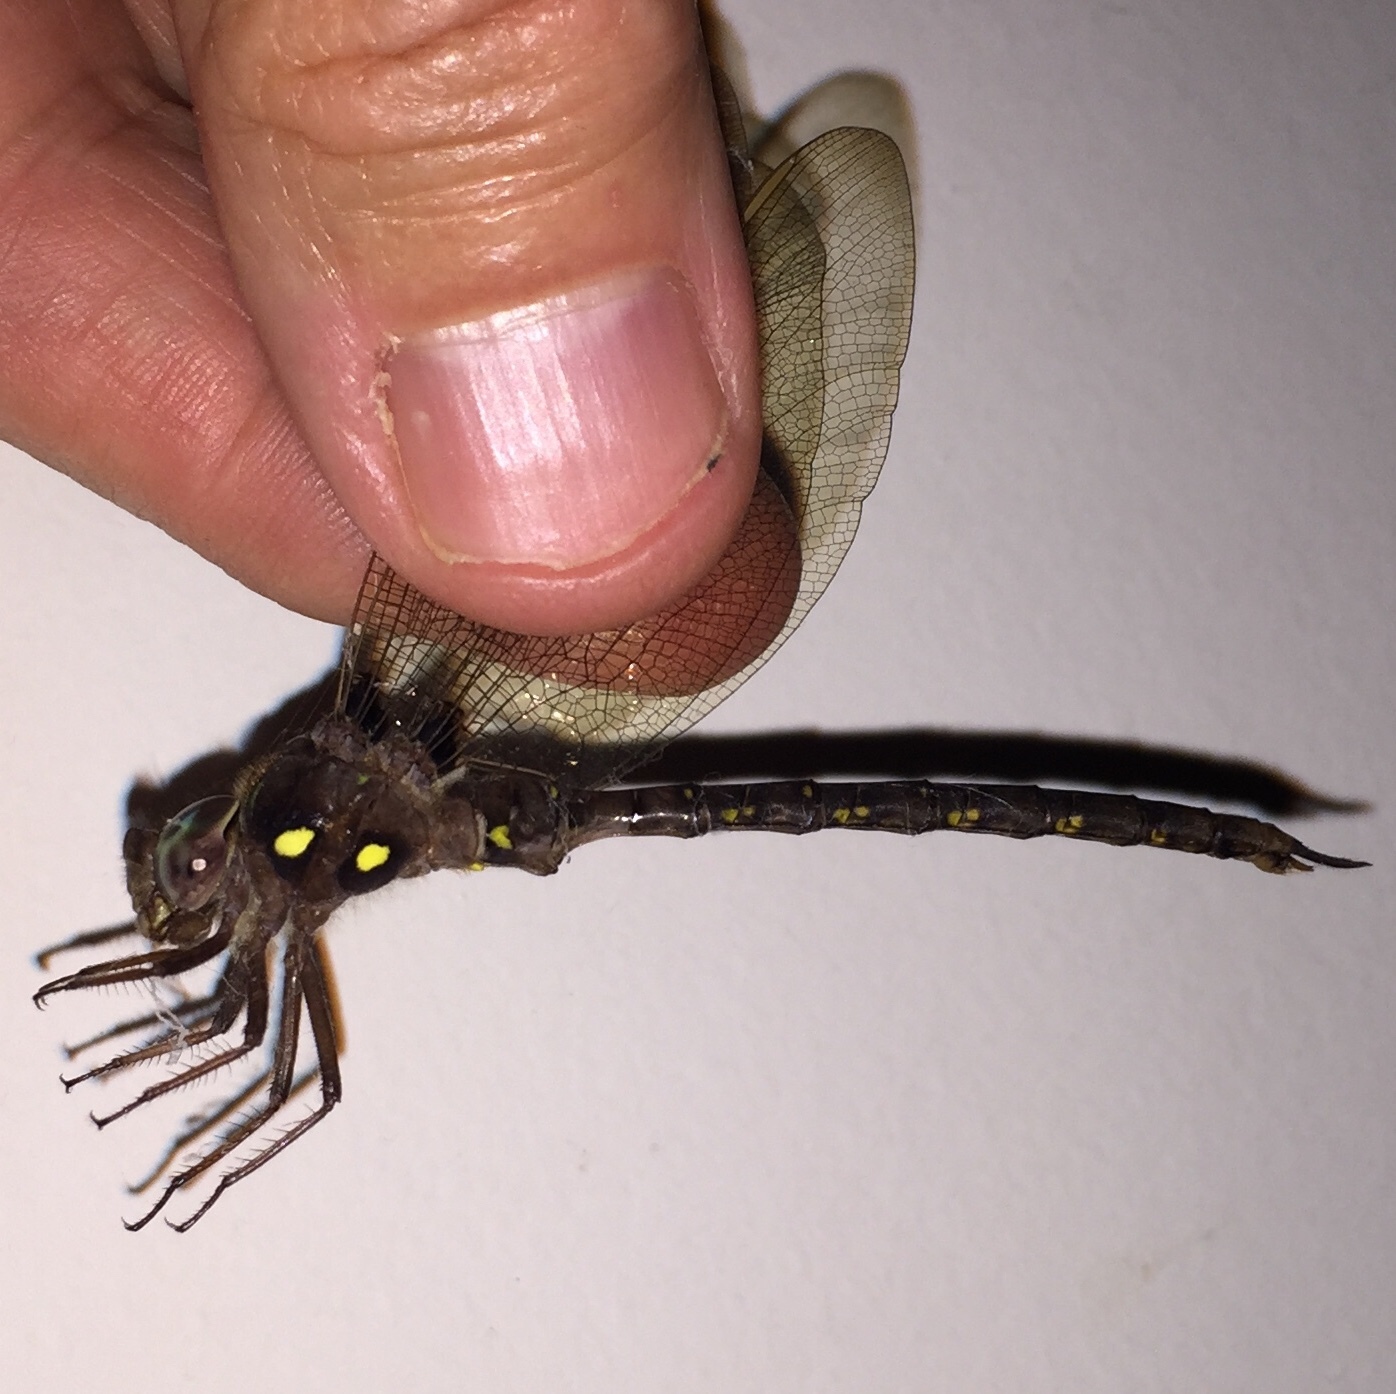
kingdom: Animalia
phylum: Arthropoda
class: Insecta
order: Odonata
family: Aeshnidae
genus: Boyeria
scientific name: Boyeria vinosa
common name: Fawn darner
